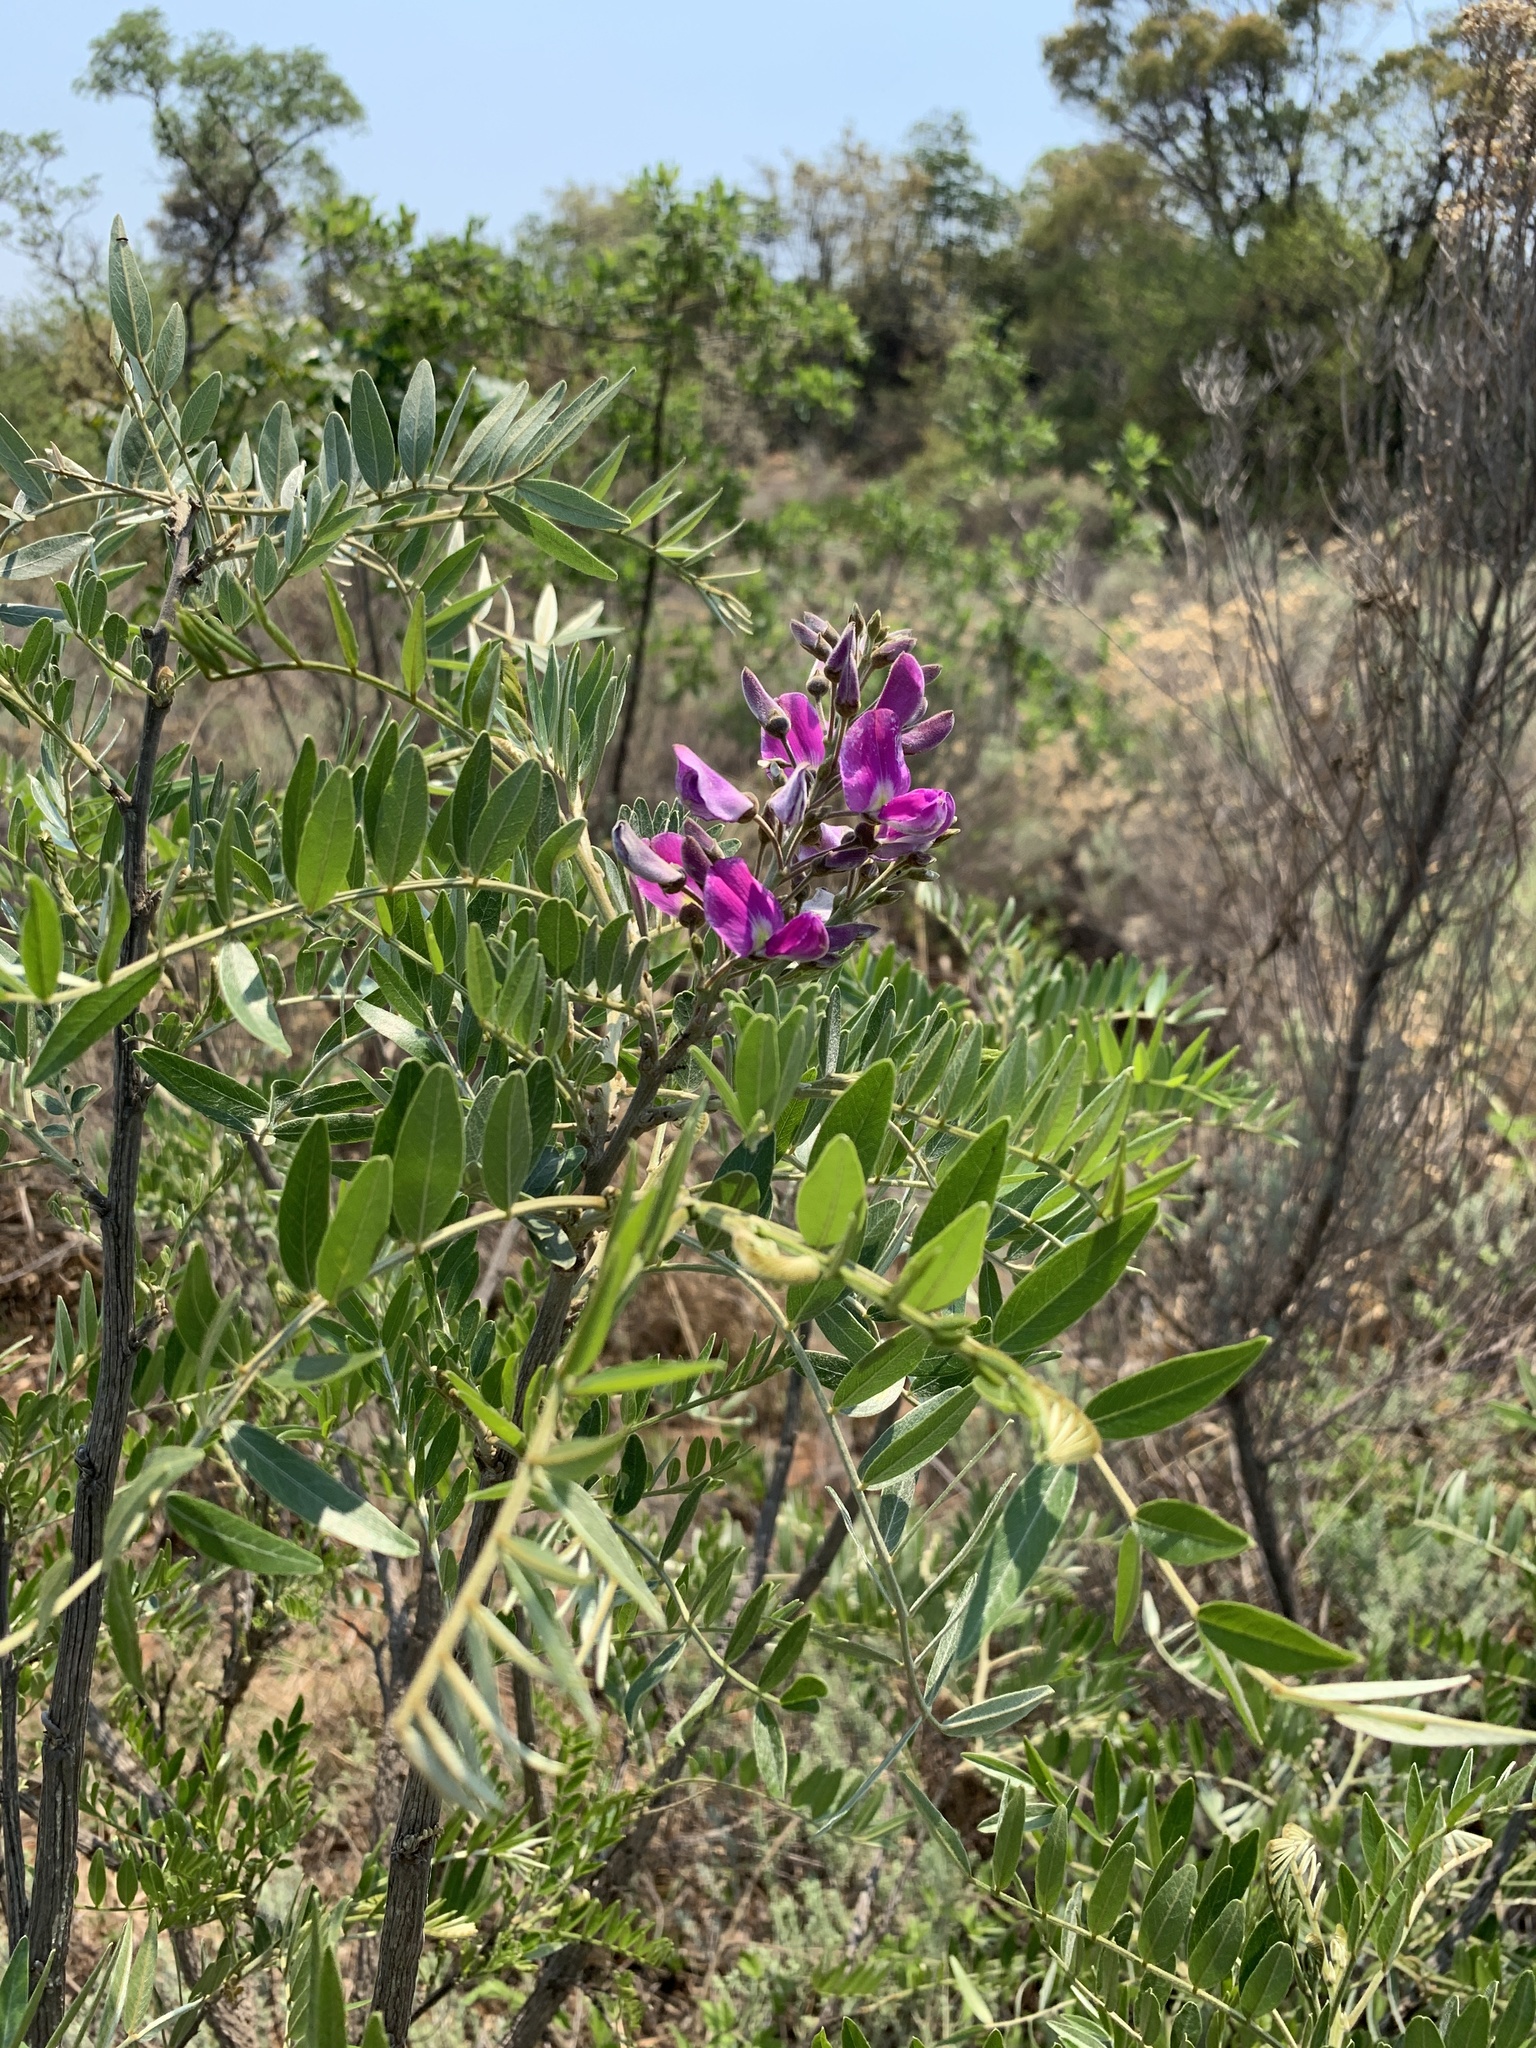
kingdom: Plantae
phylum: Tracheophyta
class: Magnoliopsida
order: Fabales
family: Fabaceae
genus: Mundulea
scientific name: Mundulea sericea
